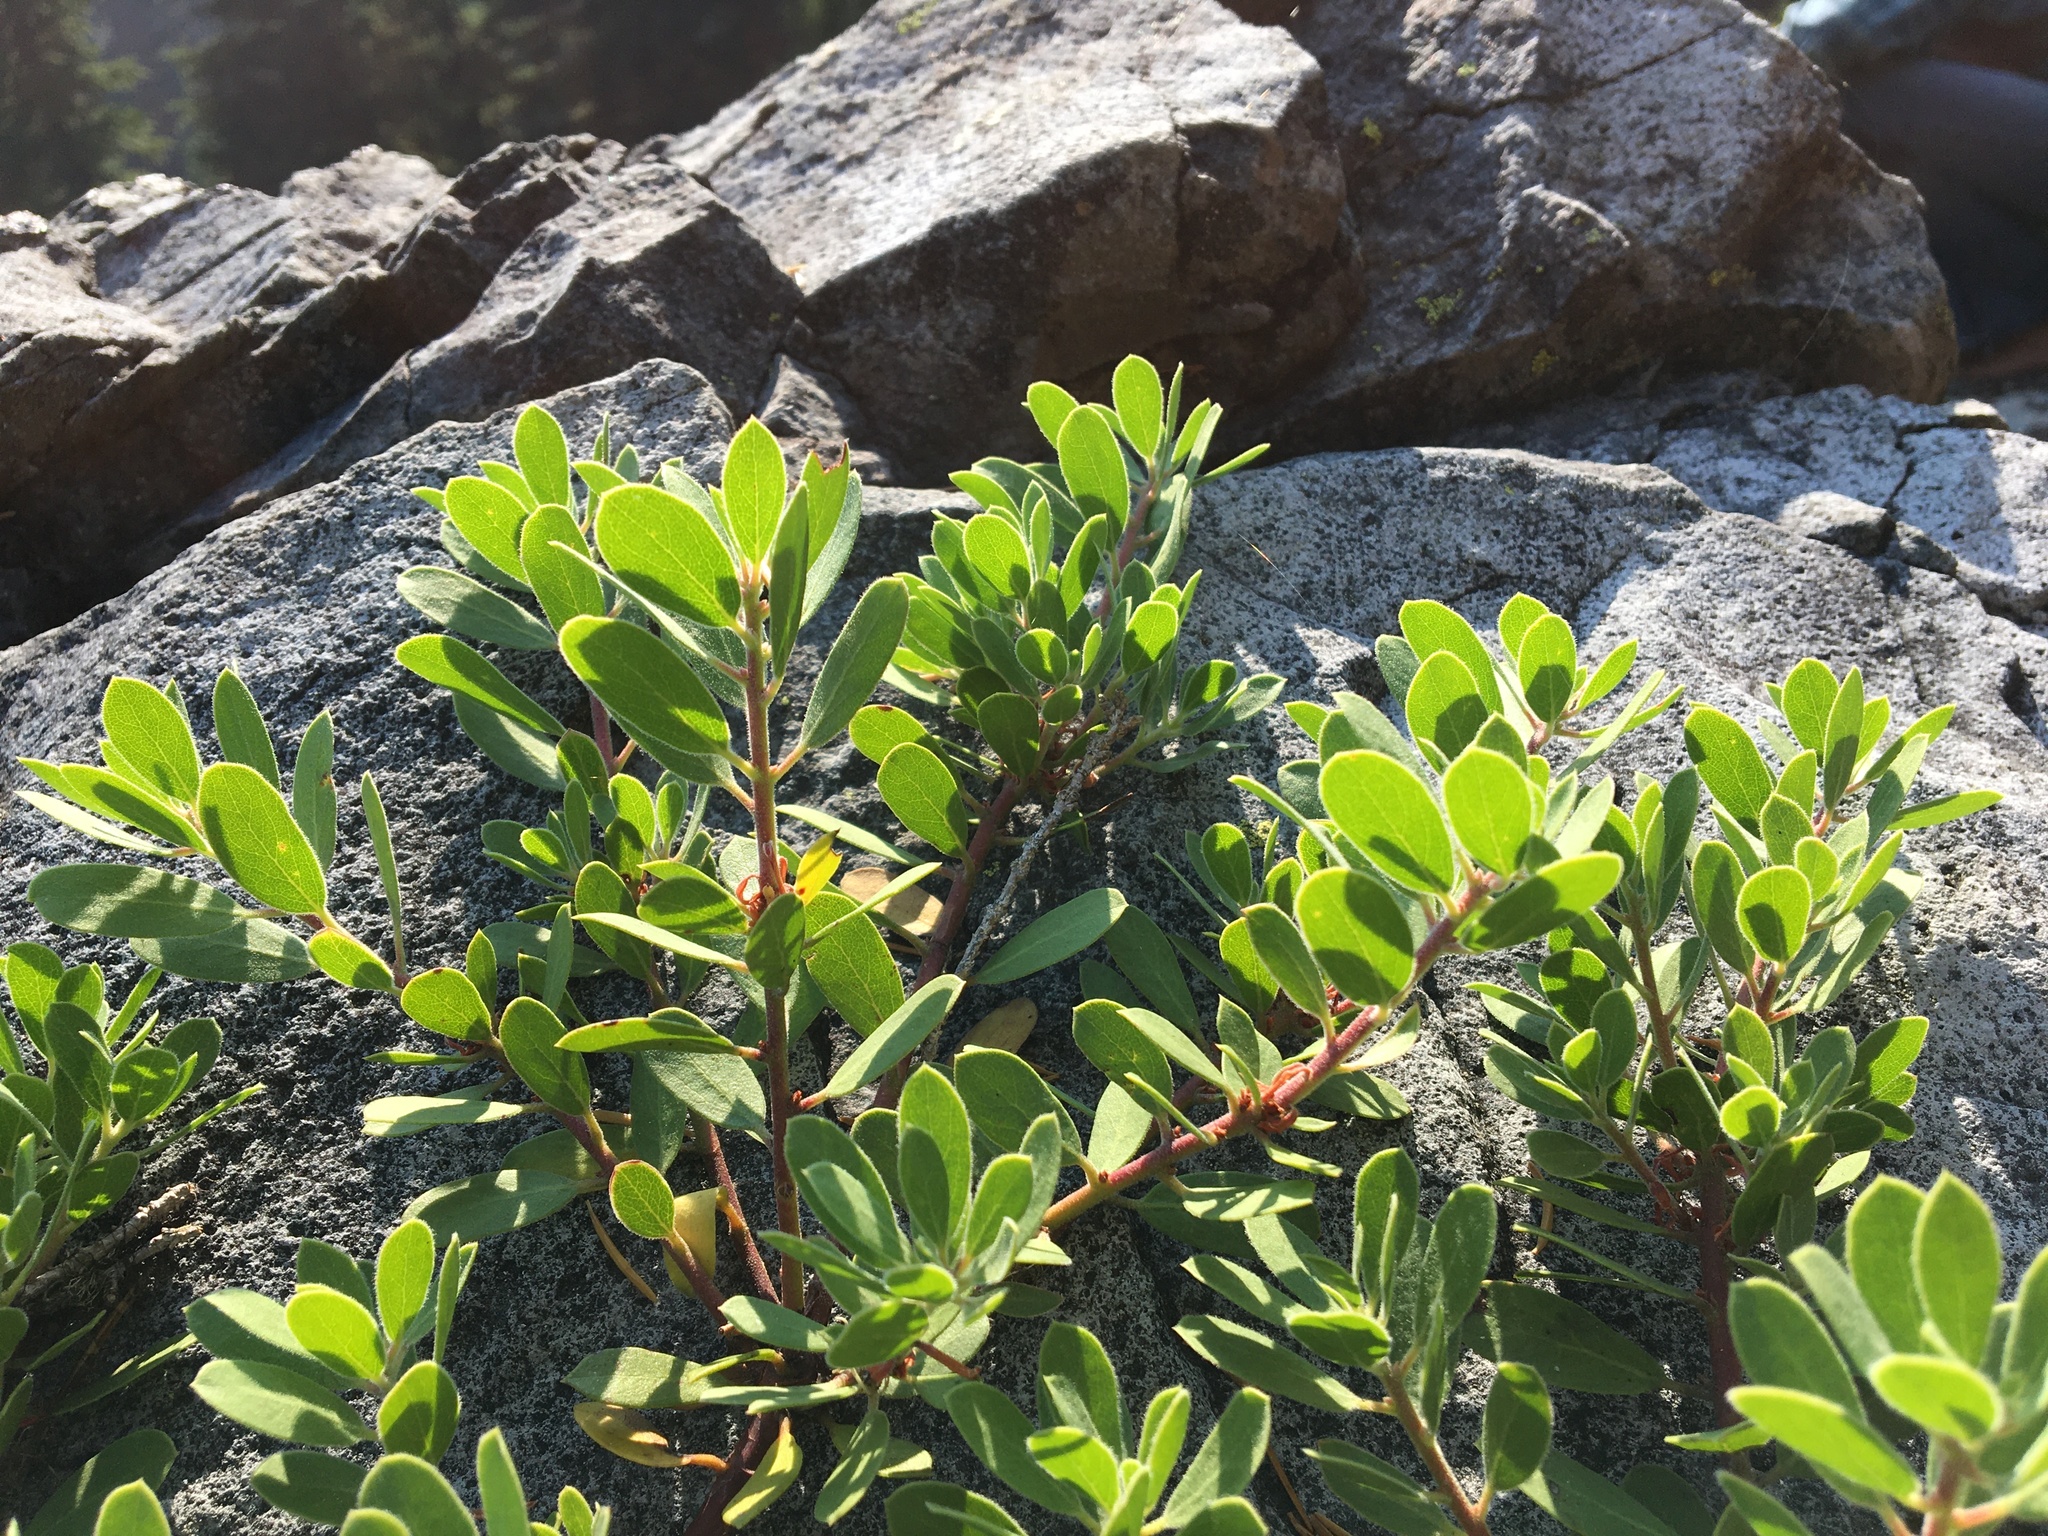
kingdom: Plantae
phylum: Tracheophyta
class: Magnoliopsida
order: Ericales
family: Ericaceae
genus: Arctostaphylos
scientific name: Arctostaphylos nevadensis
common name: Pinemat manzanita
